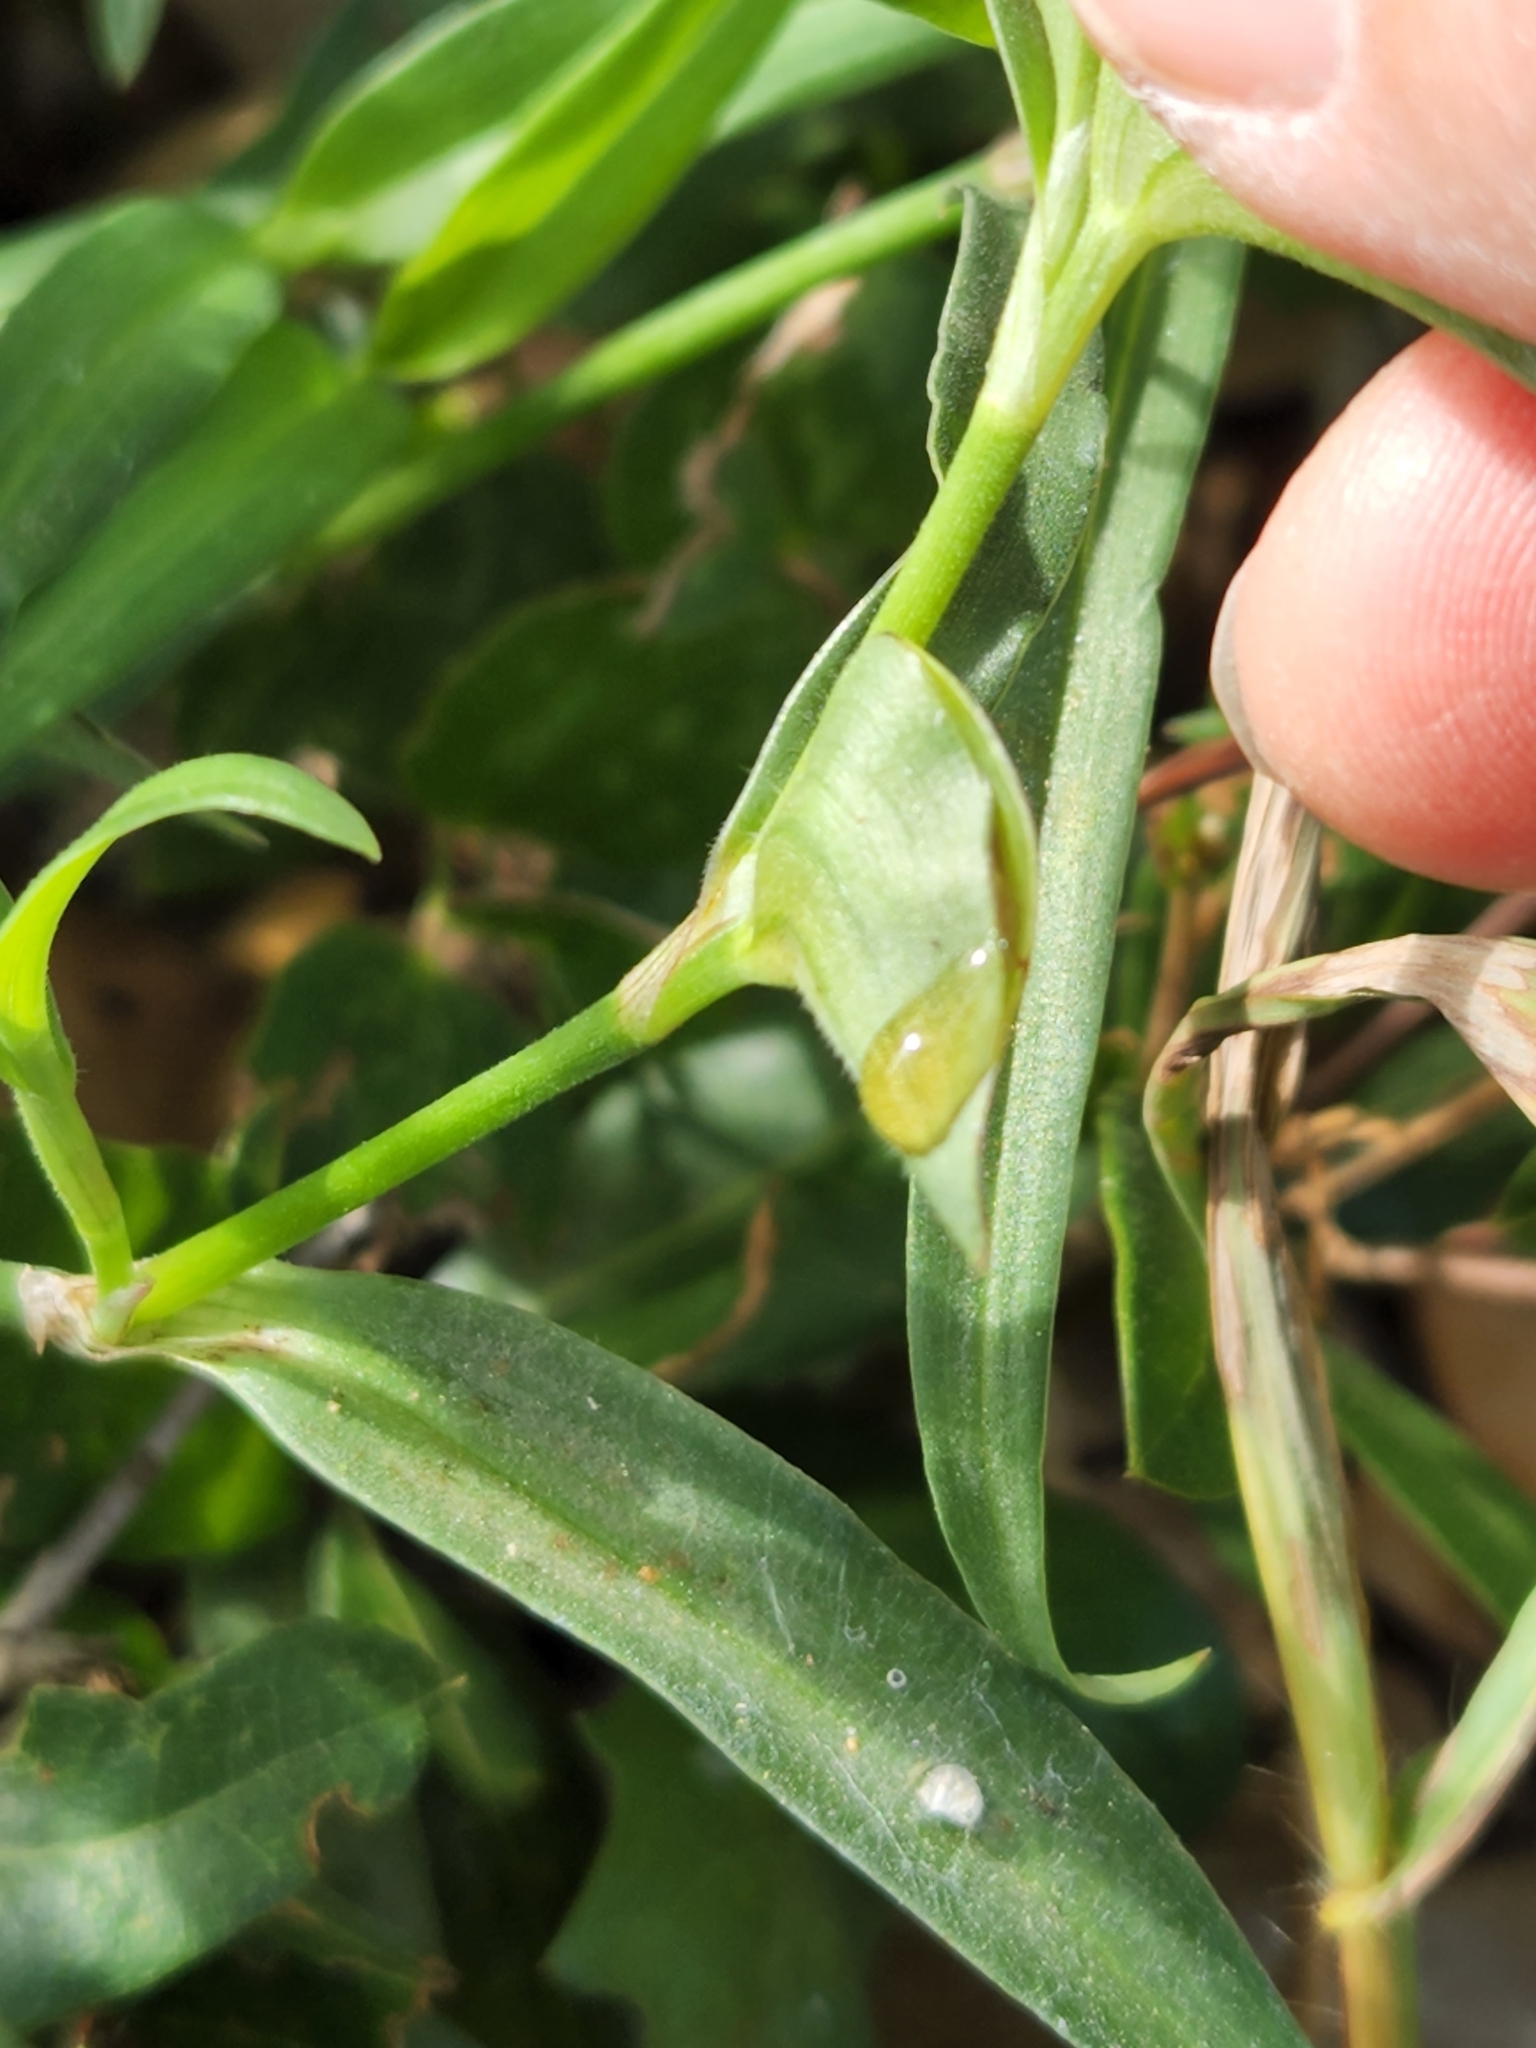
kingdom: Plantae
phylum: Tracheophyta
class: Liliopsida
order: Commelinales
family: Commelinaceae
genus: Commelina
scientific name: Commelina erecta
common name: Blousel blommetjie
